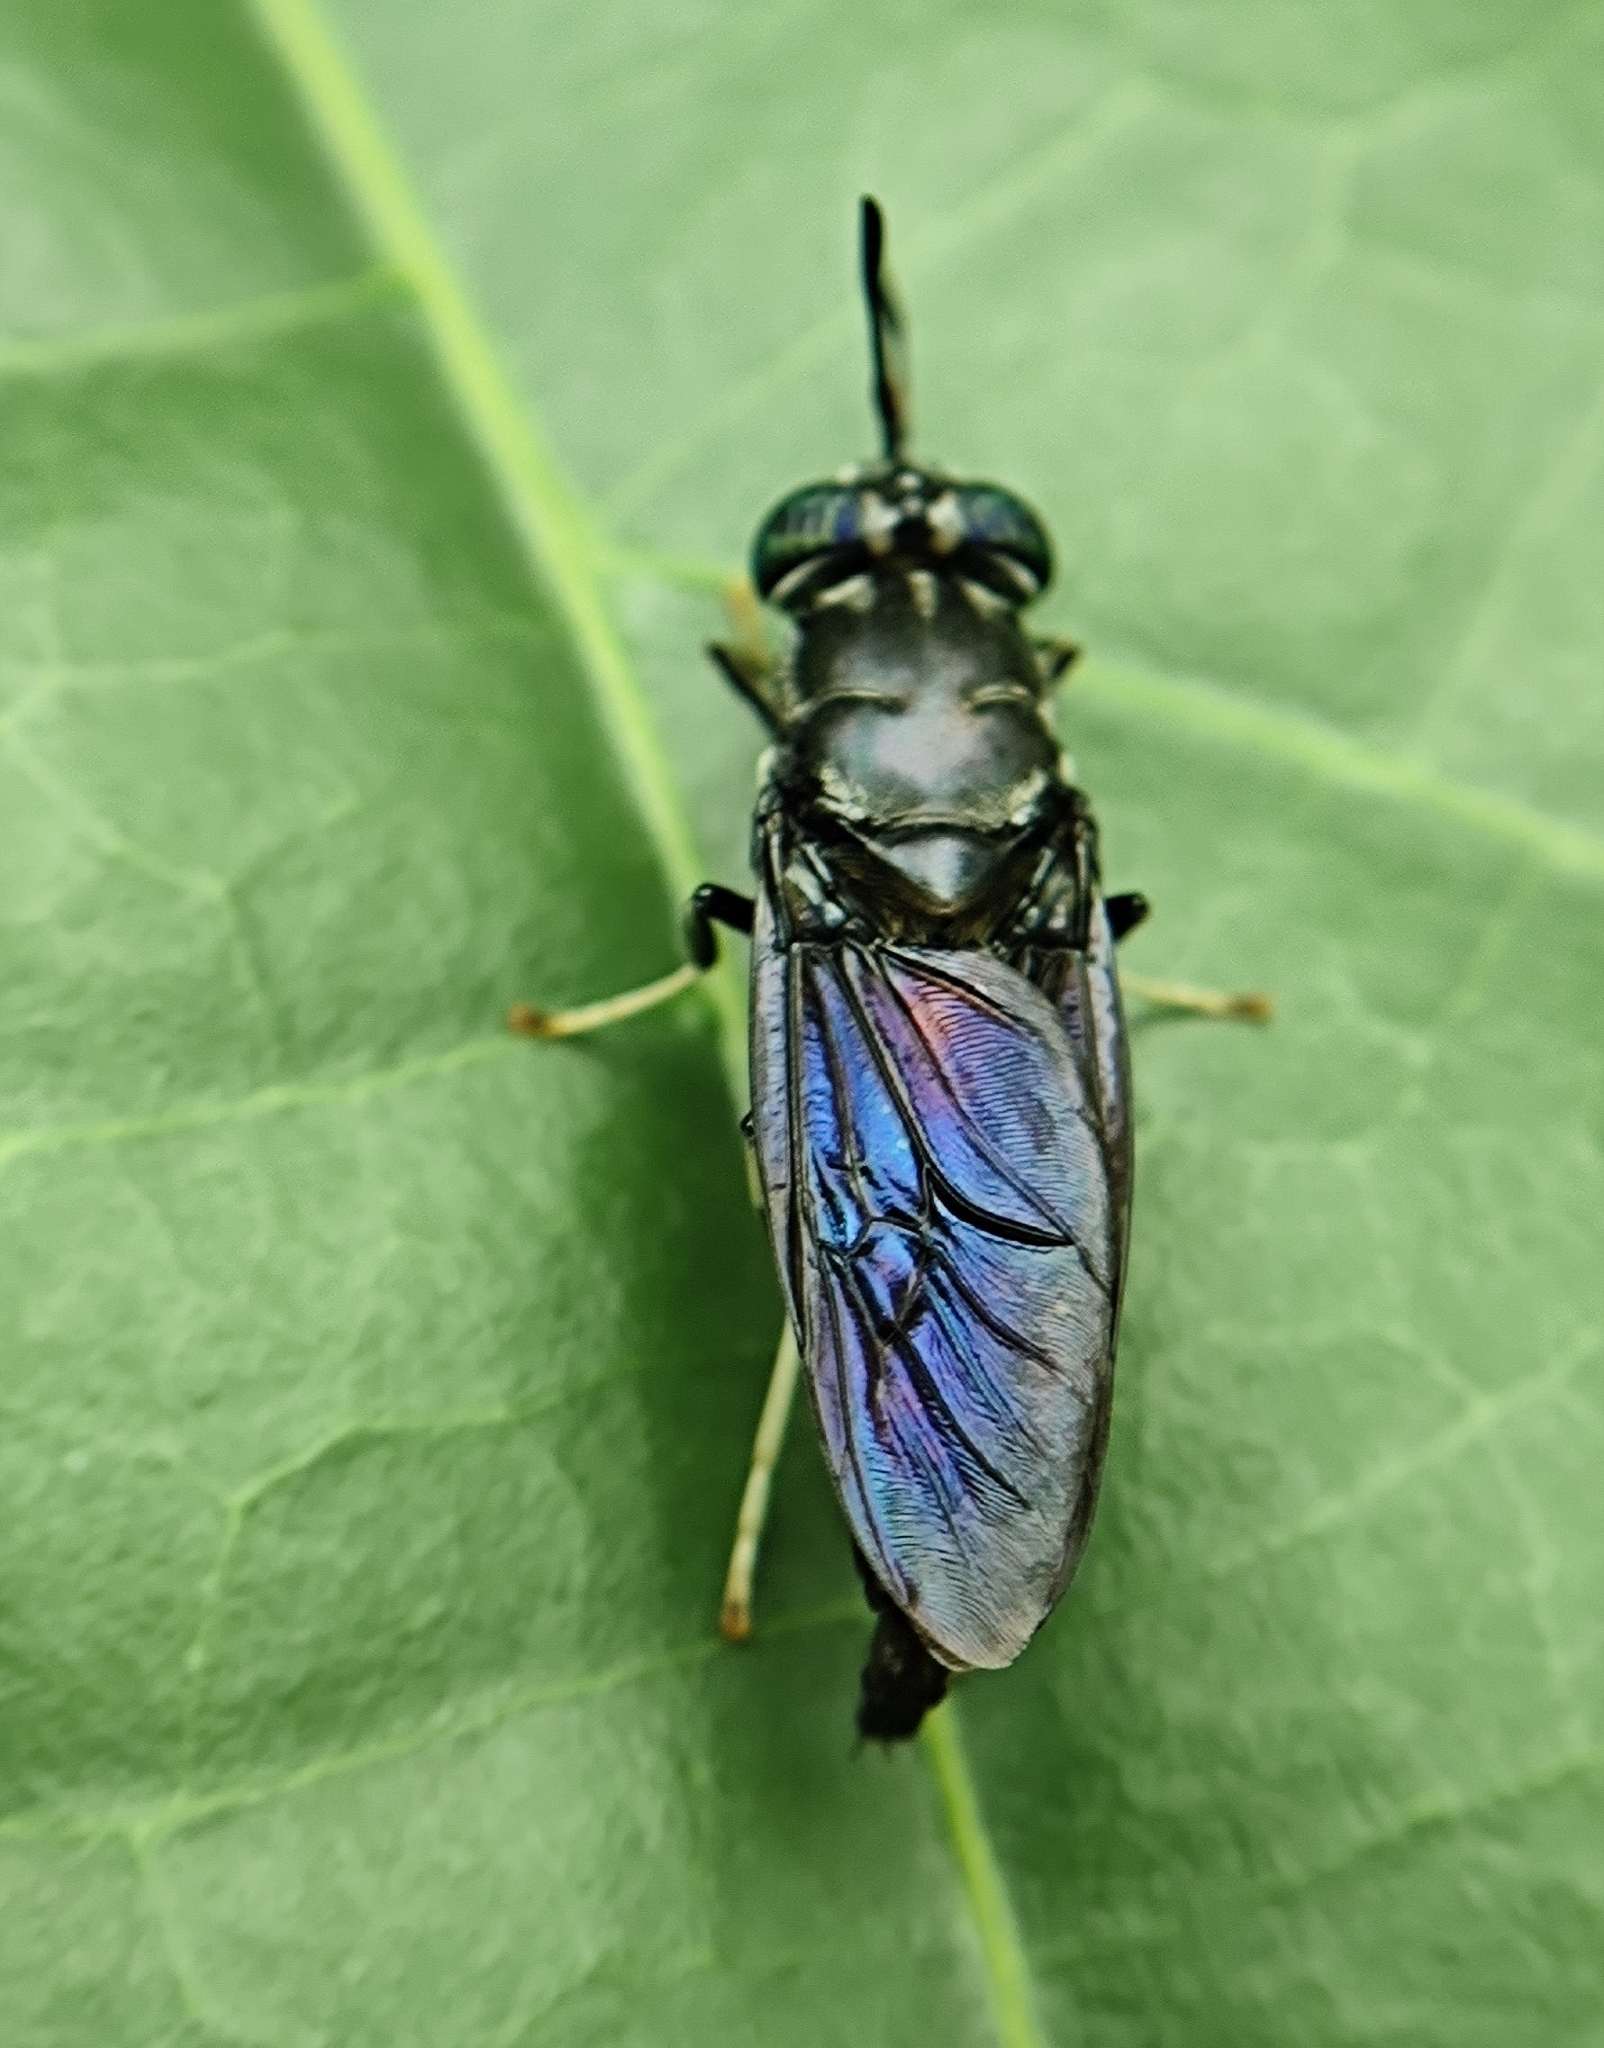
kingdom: Animalia
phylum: Arthropoda
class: Insecta
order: Diptera
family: Stratiomyidae
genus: Hermetia
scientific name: Hermetia illucens
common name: Black soldier fly
